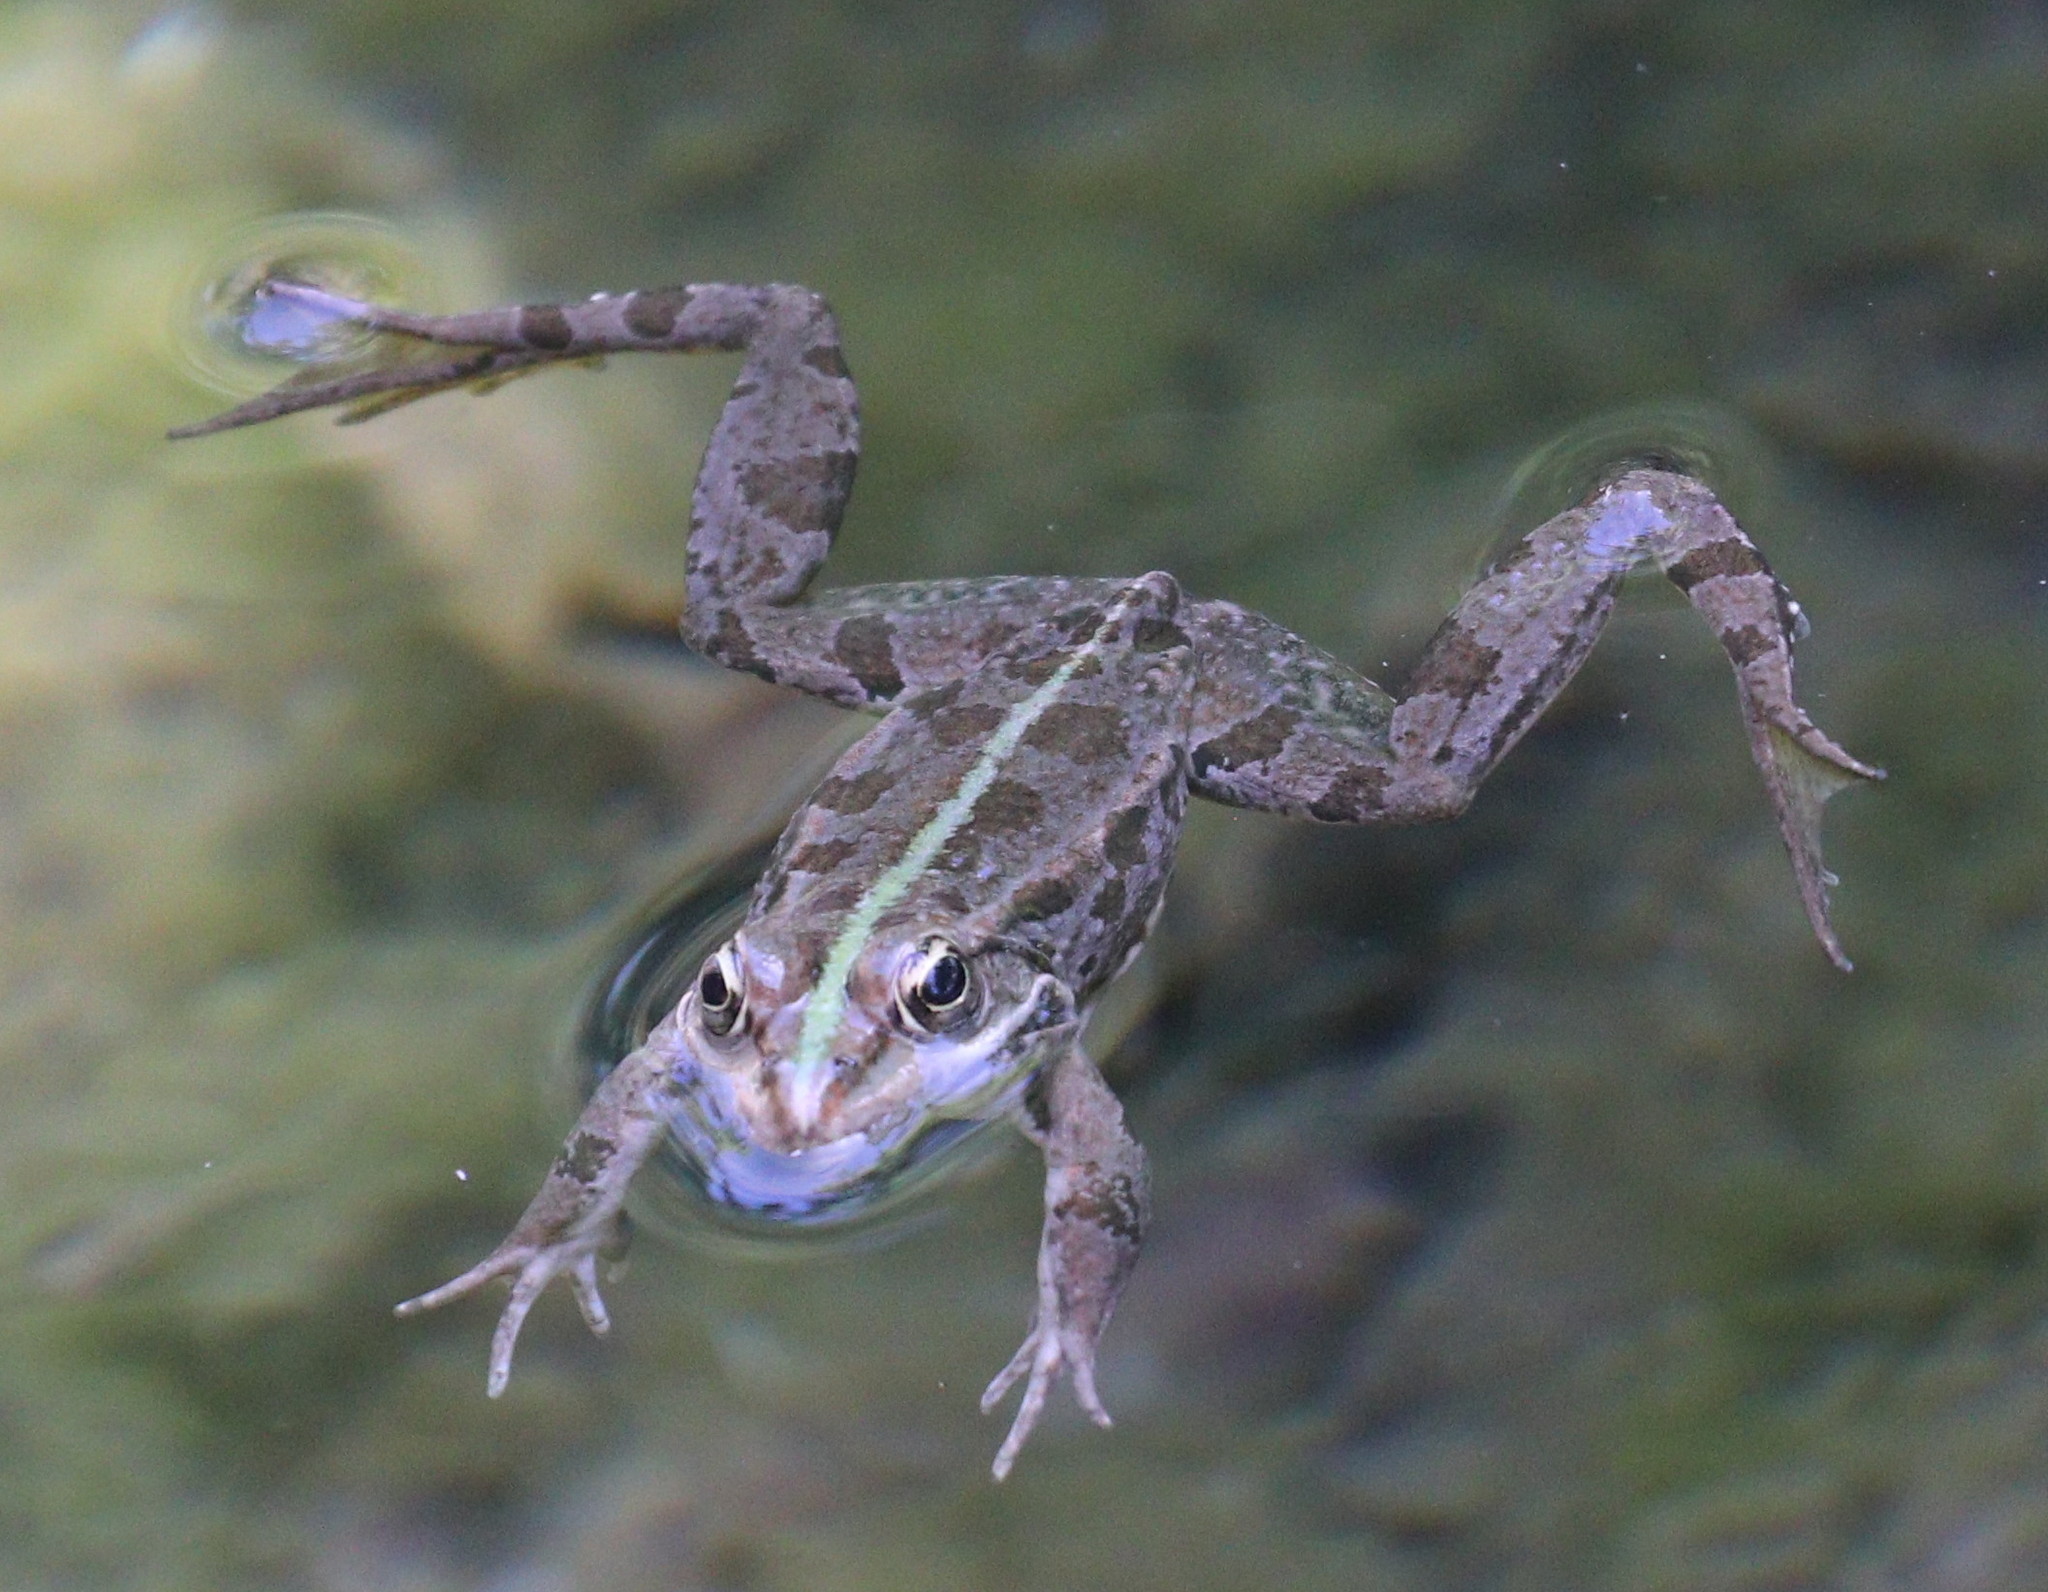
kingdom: Animalia
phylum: Chordata
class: Amphibia
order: Anura
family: Ranidae
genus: Pelophylax
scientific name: Pelophylax ridibundus
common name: Marsh frog
